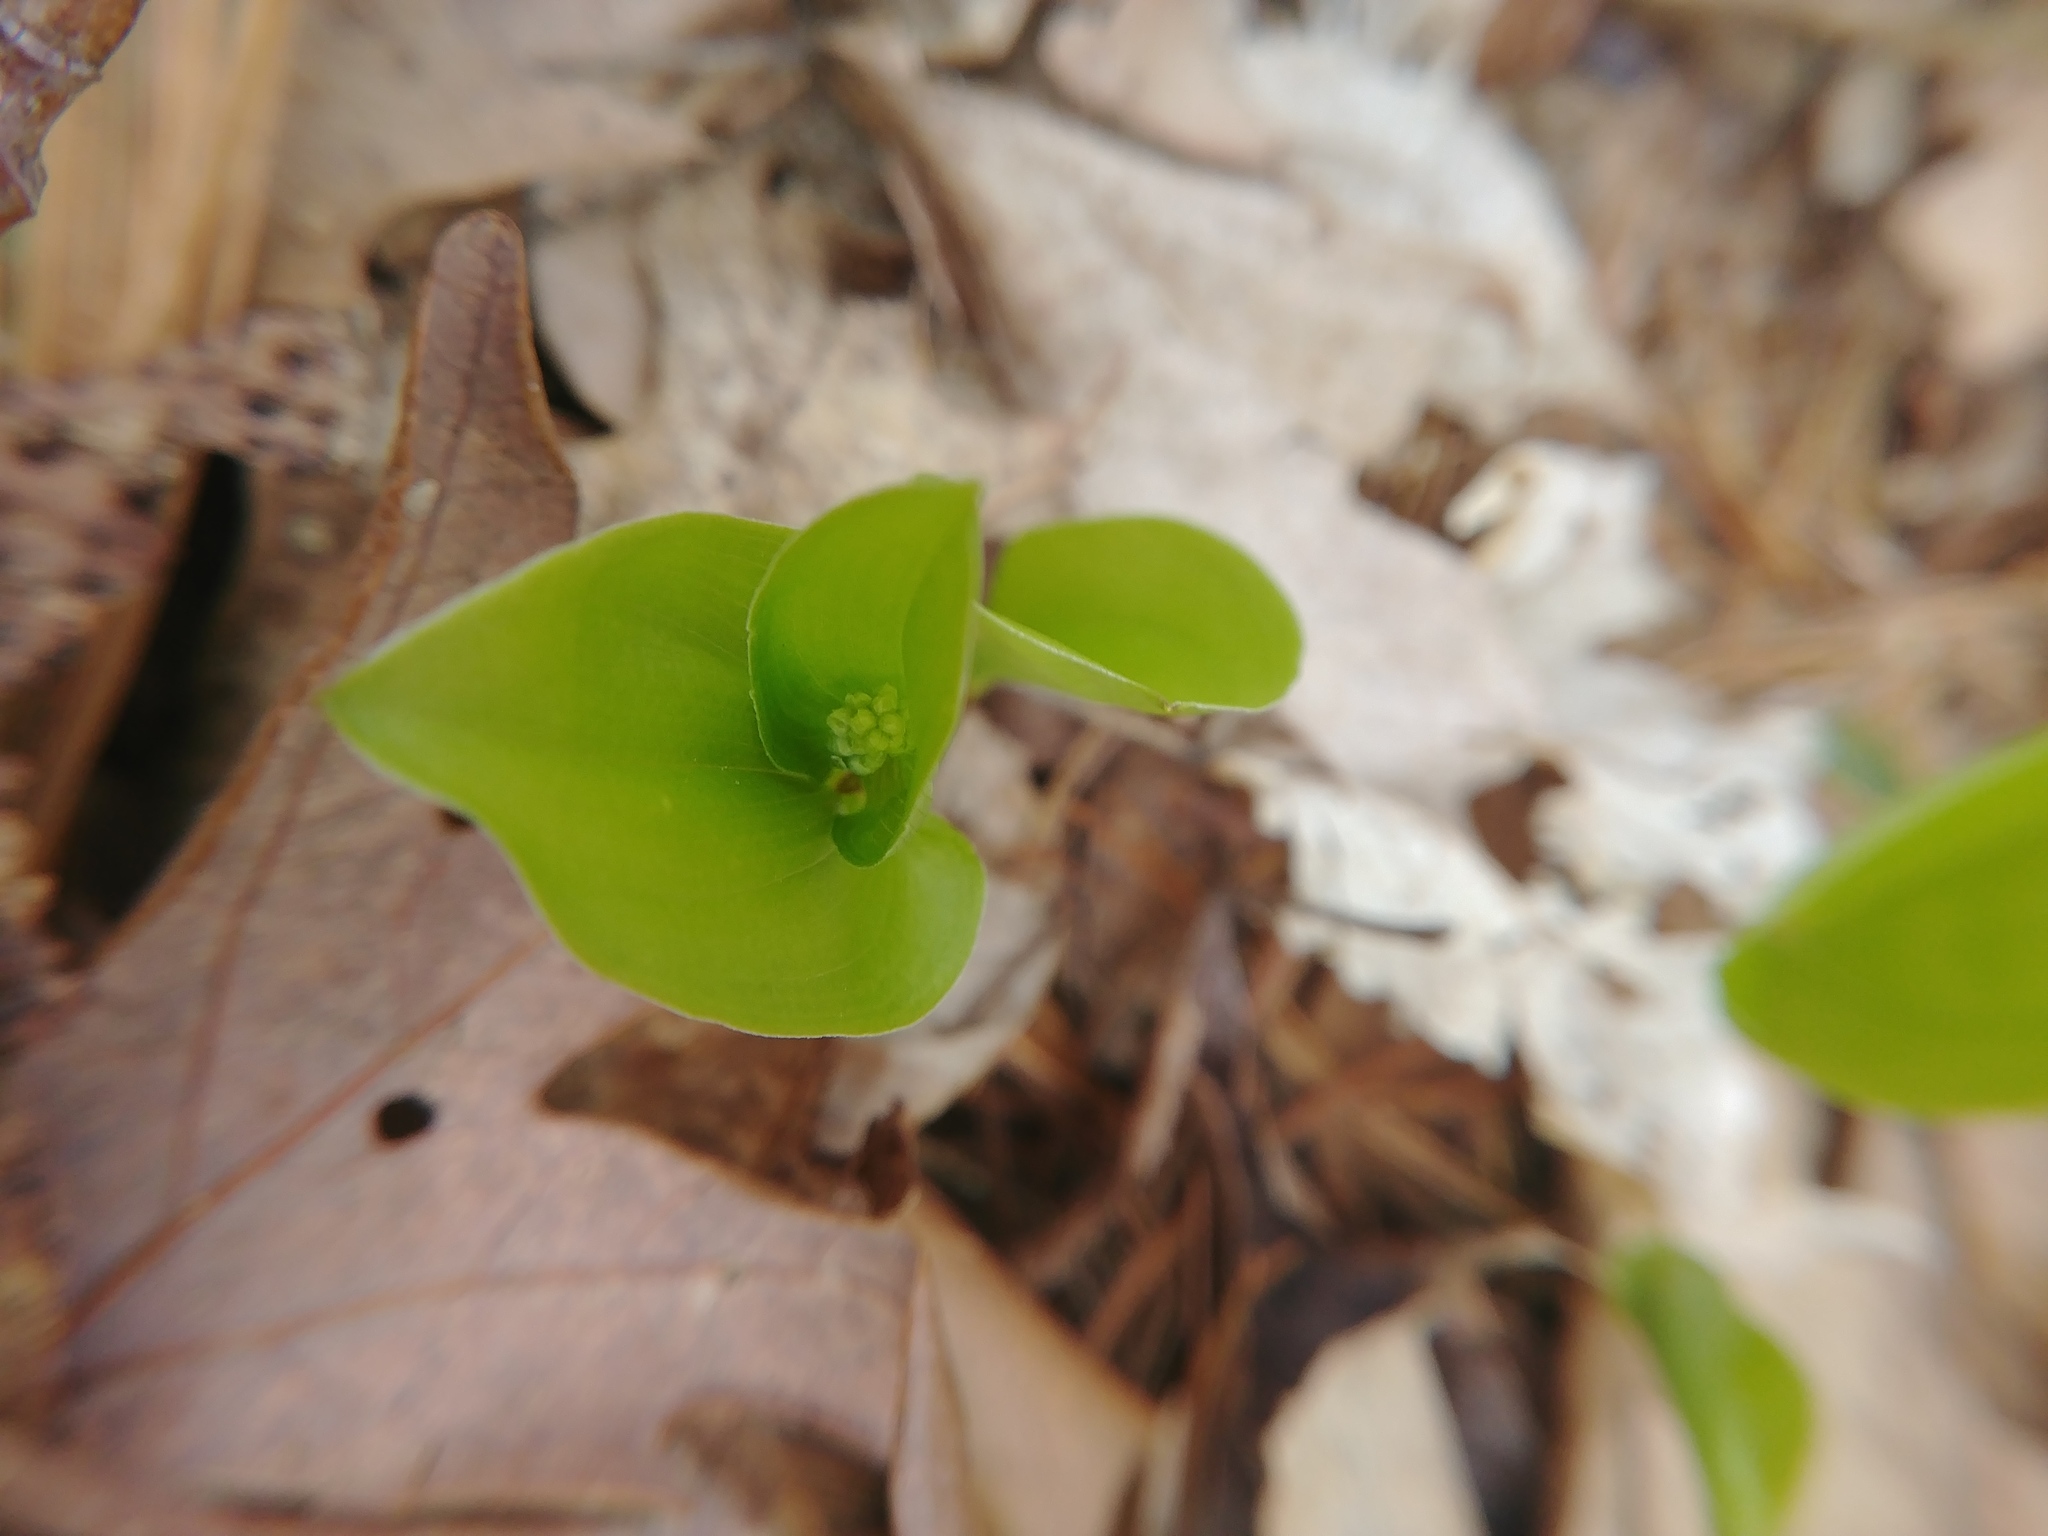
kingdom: Plantae
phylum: Tracheophyta
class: Liliopsida
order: Asparagales
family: Asparagaceae
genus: Maianthemum
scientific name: Maianthemum canadense
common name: False lily-of-the-valley
